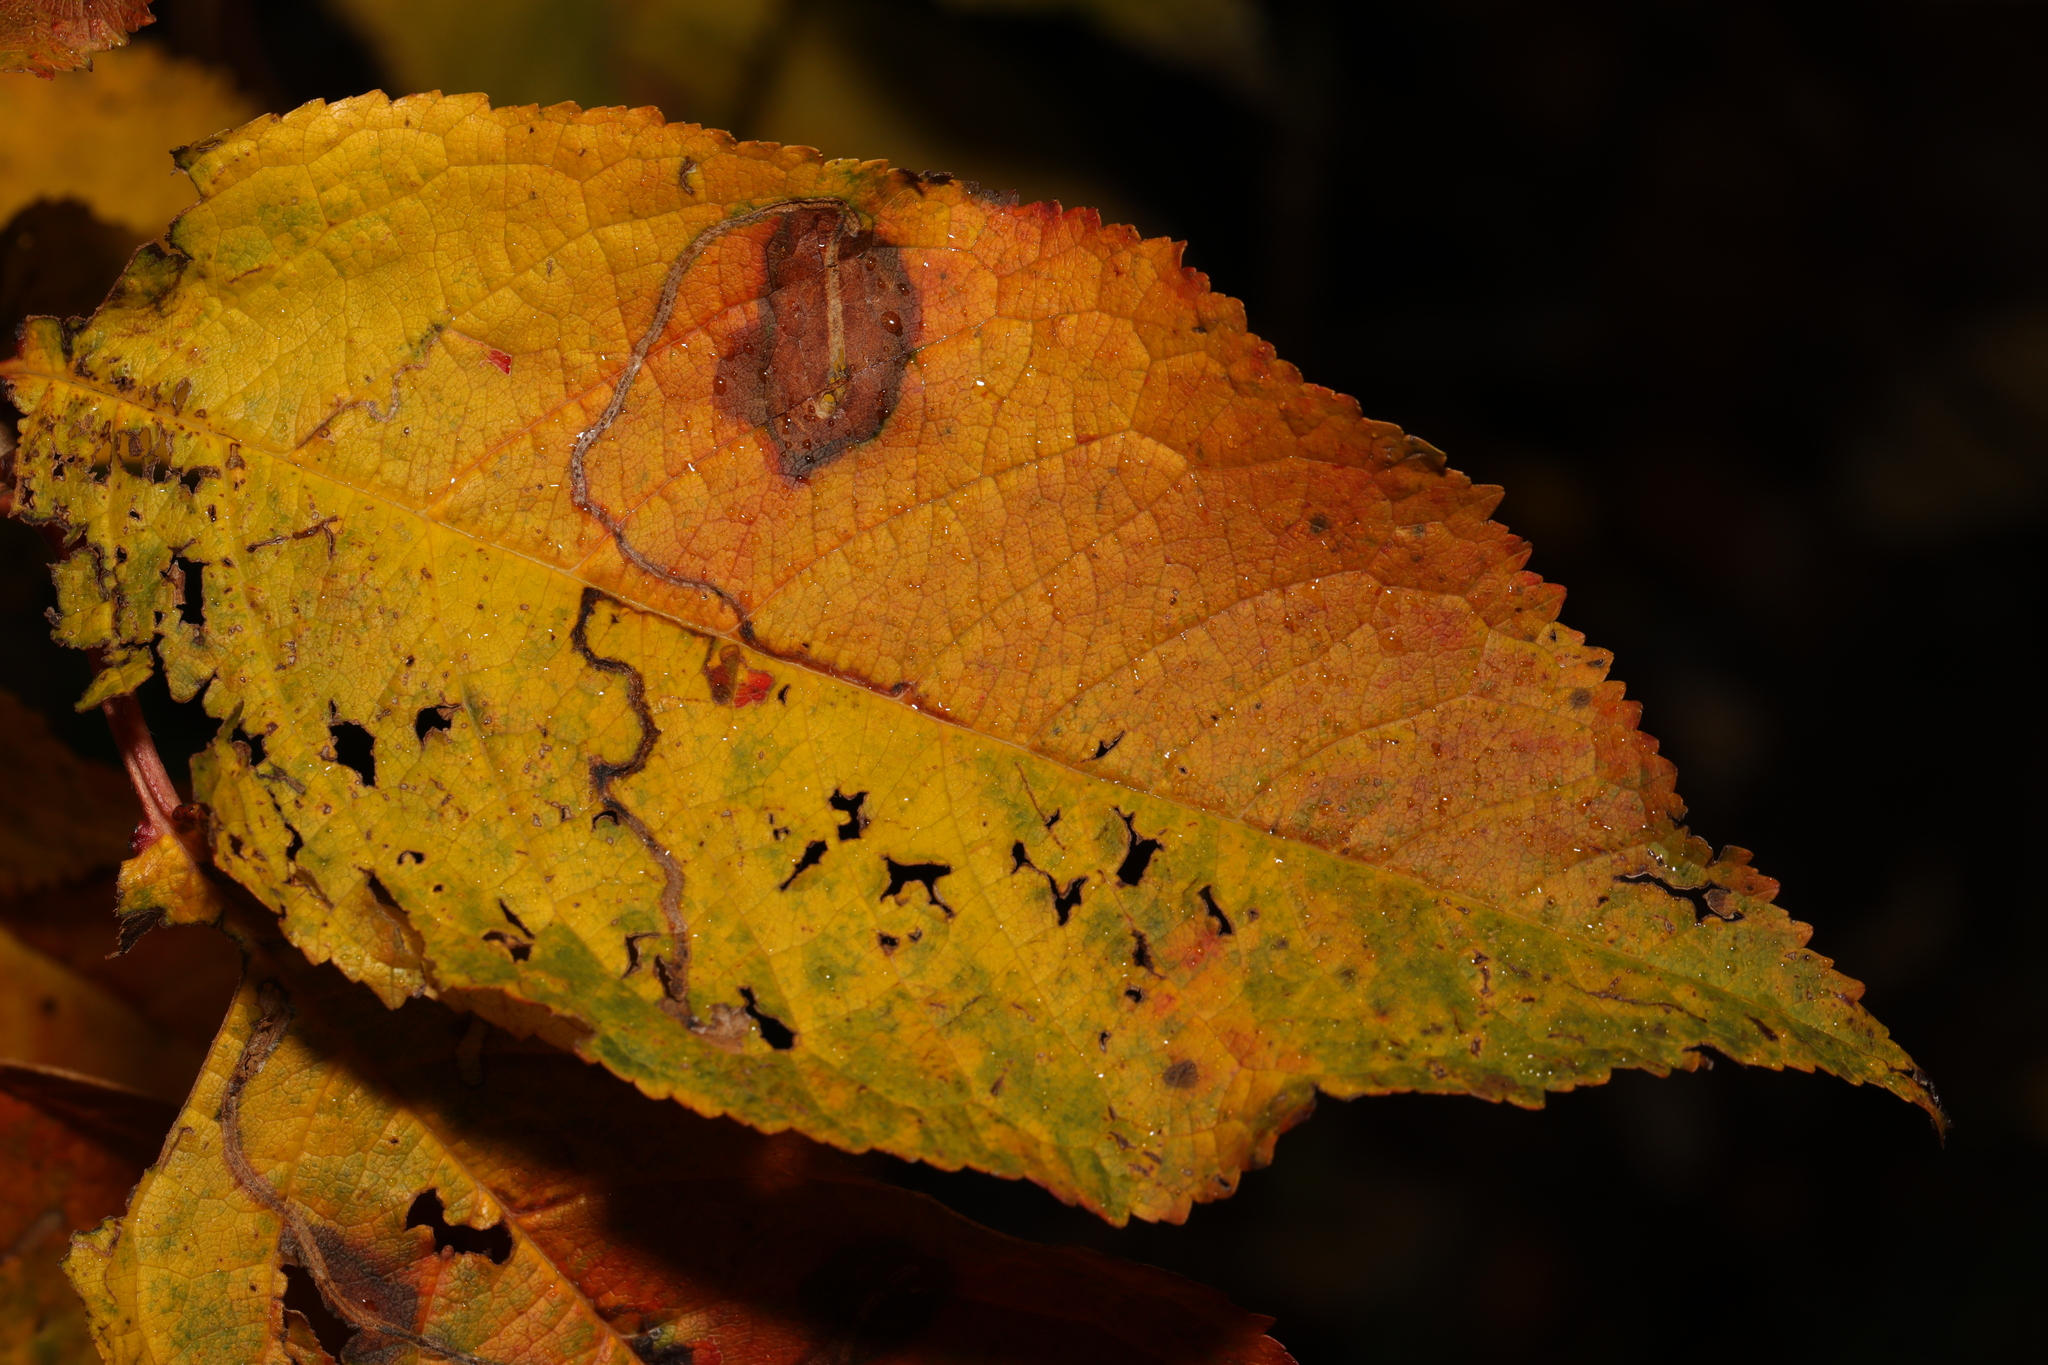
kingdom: Animalia
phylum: Arthropoda
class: Insecta
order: Lepidoptera
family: Lyonetiidae
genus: Lyonetia
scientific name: Lyonetia clerkella
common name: Apple leaf miner
